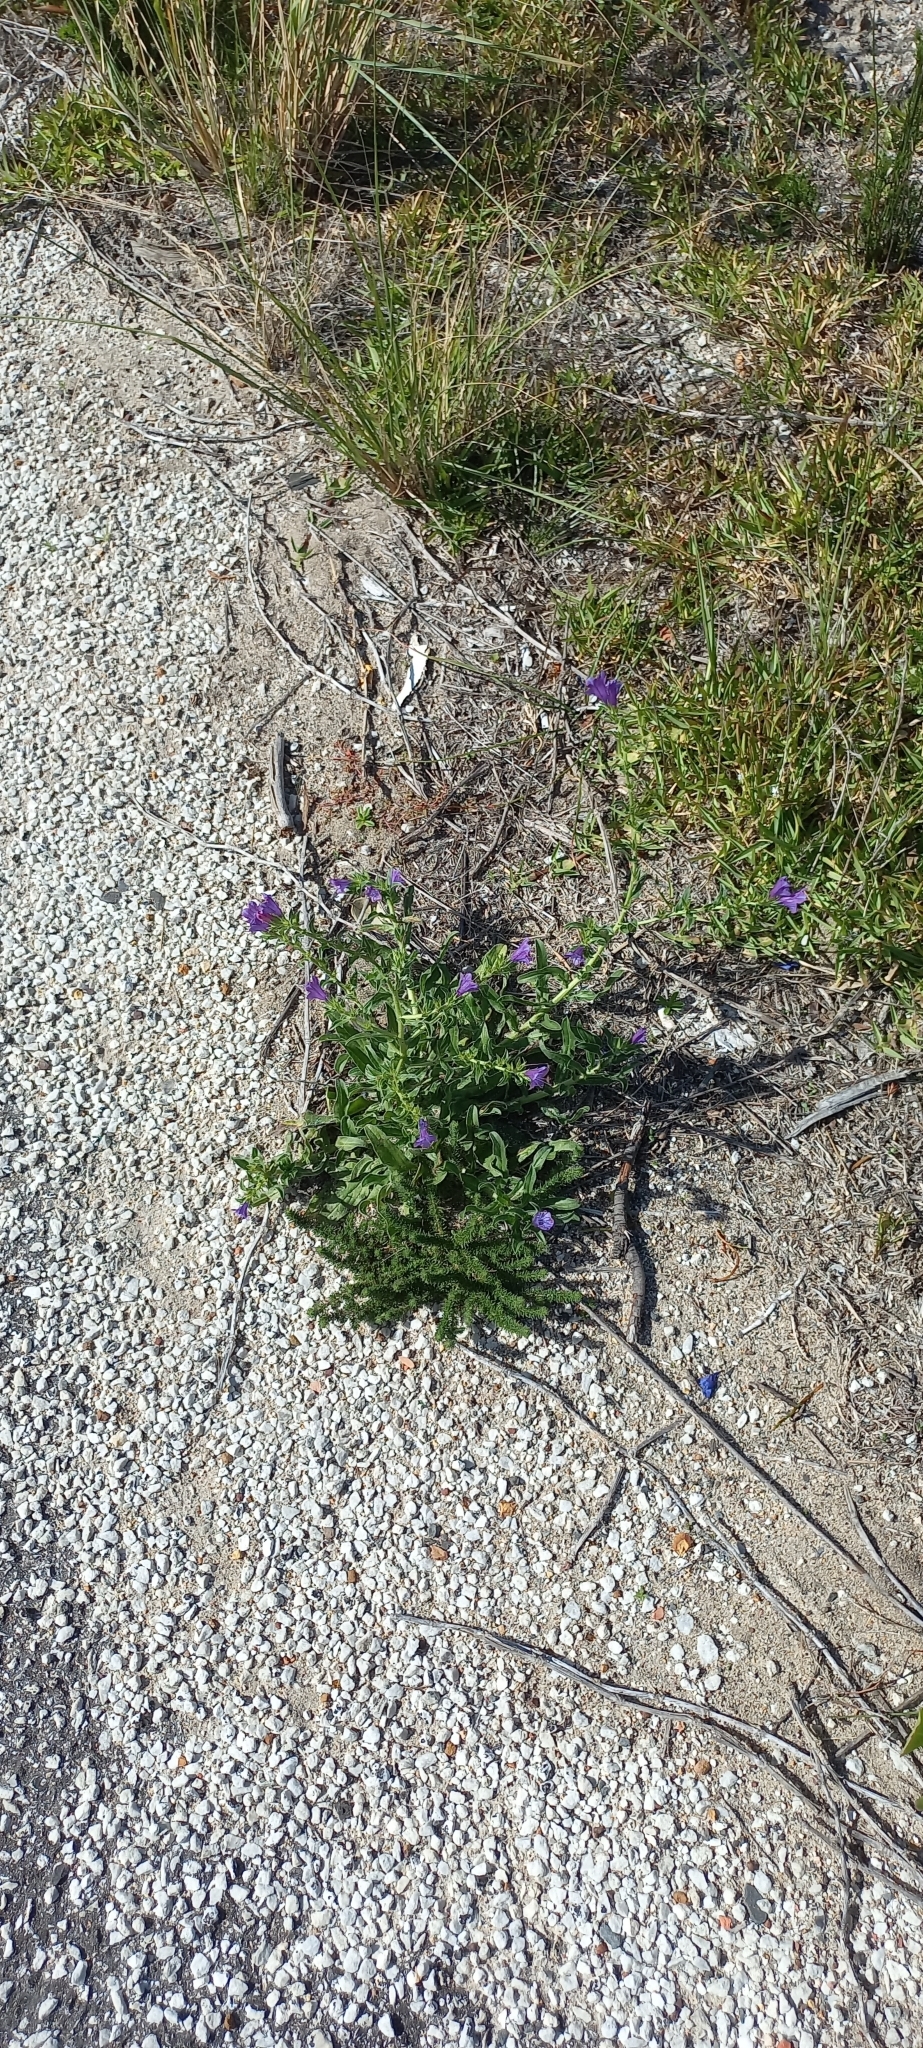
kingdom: Plantae
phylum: Tracheophyta
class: Magnoliopsida
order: Boraginales
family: Boraginaceae
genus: Echium
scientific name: Echium plantagineum
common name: Purple viper's-bugloss
